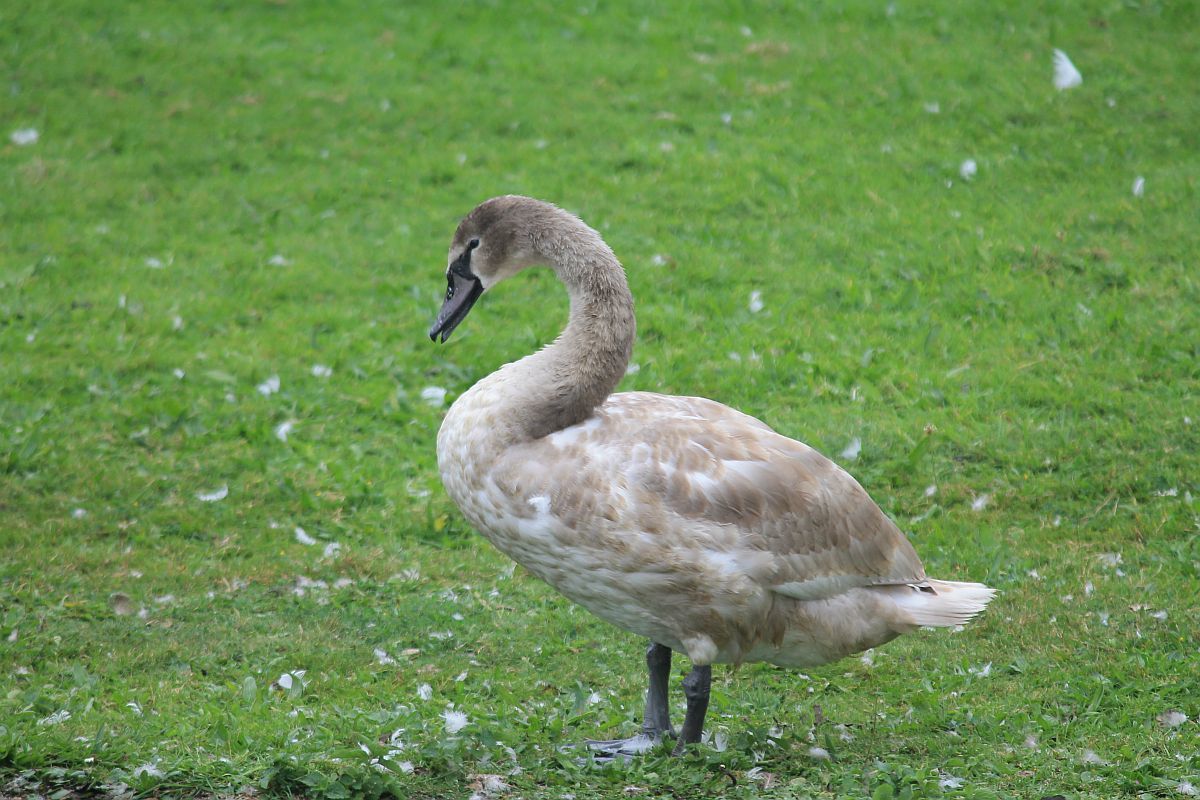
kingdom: Animalia
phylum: Chordata
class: Aves
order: Anseriformes
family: Anatidae
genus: Cygnus
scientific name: Cygnus olor
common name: Mute swan
